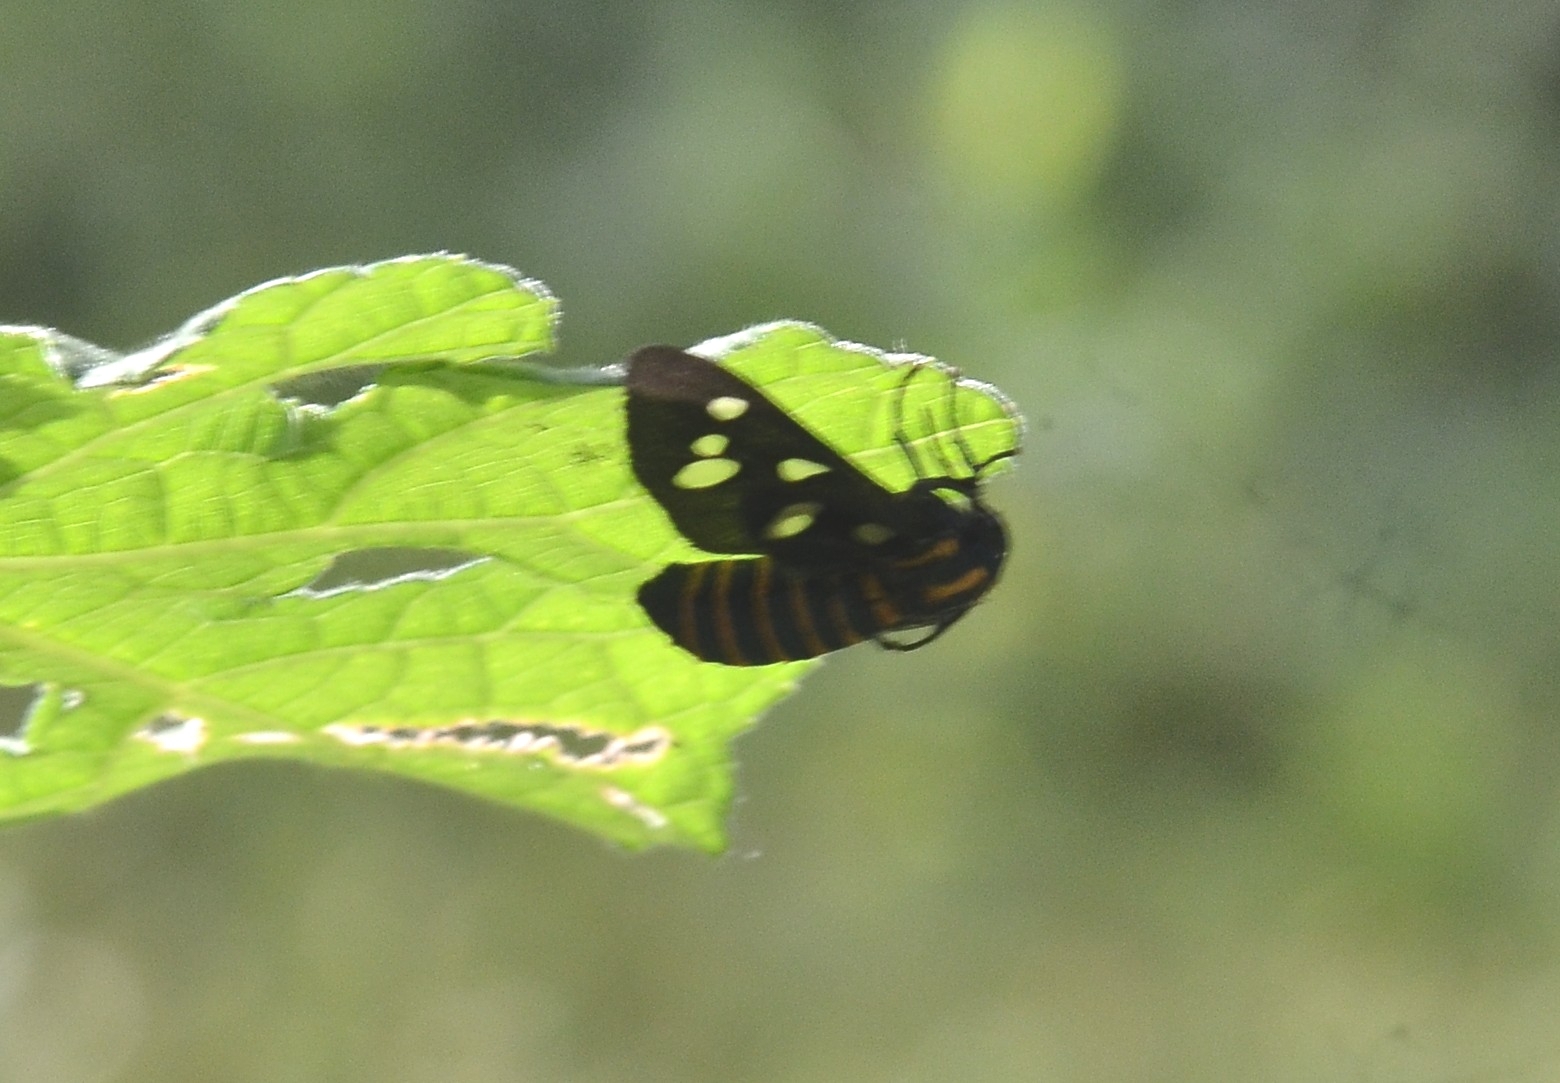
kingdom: Animalia
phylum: Arthropoda
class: Insecta
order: Lepidoptera
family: Erebidae
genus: Amata
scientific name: Amata passalis
